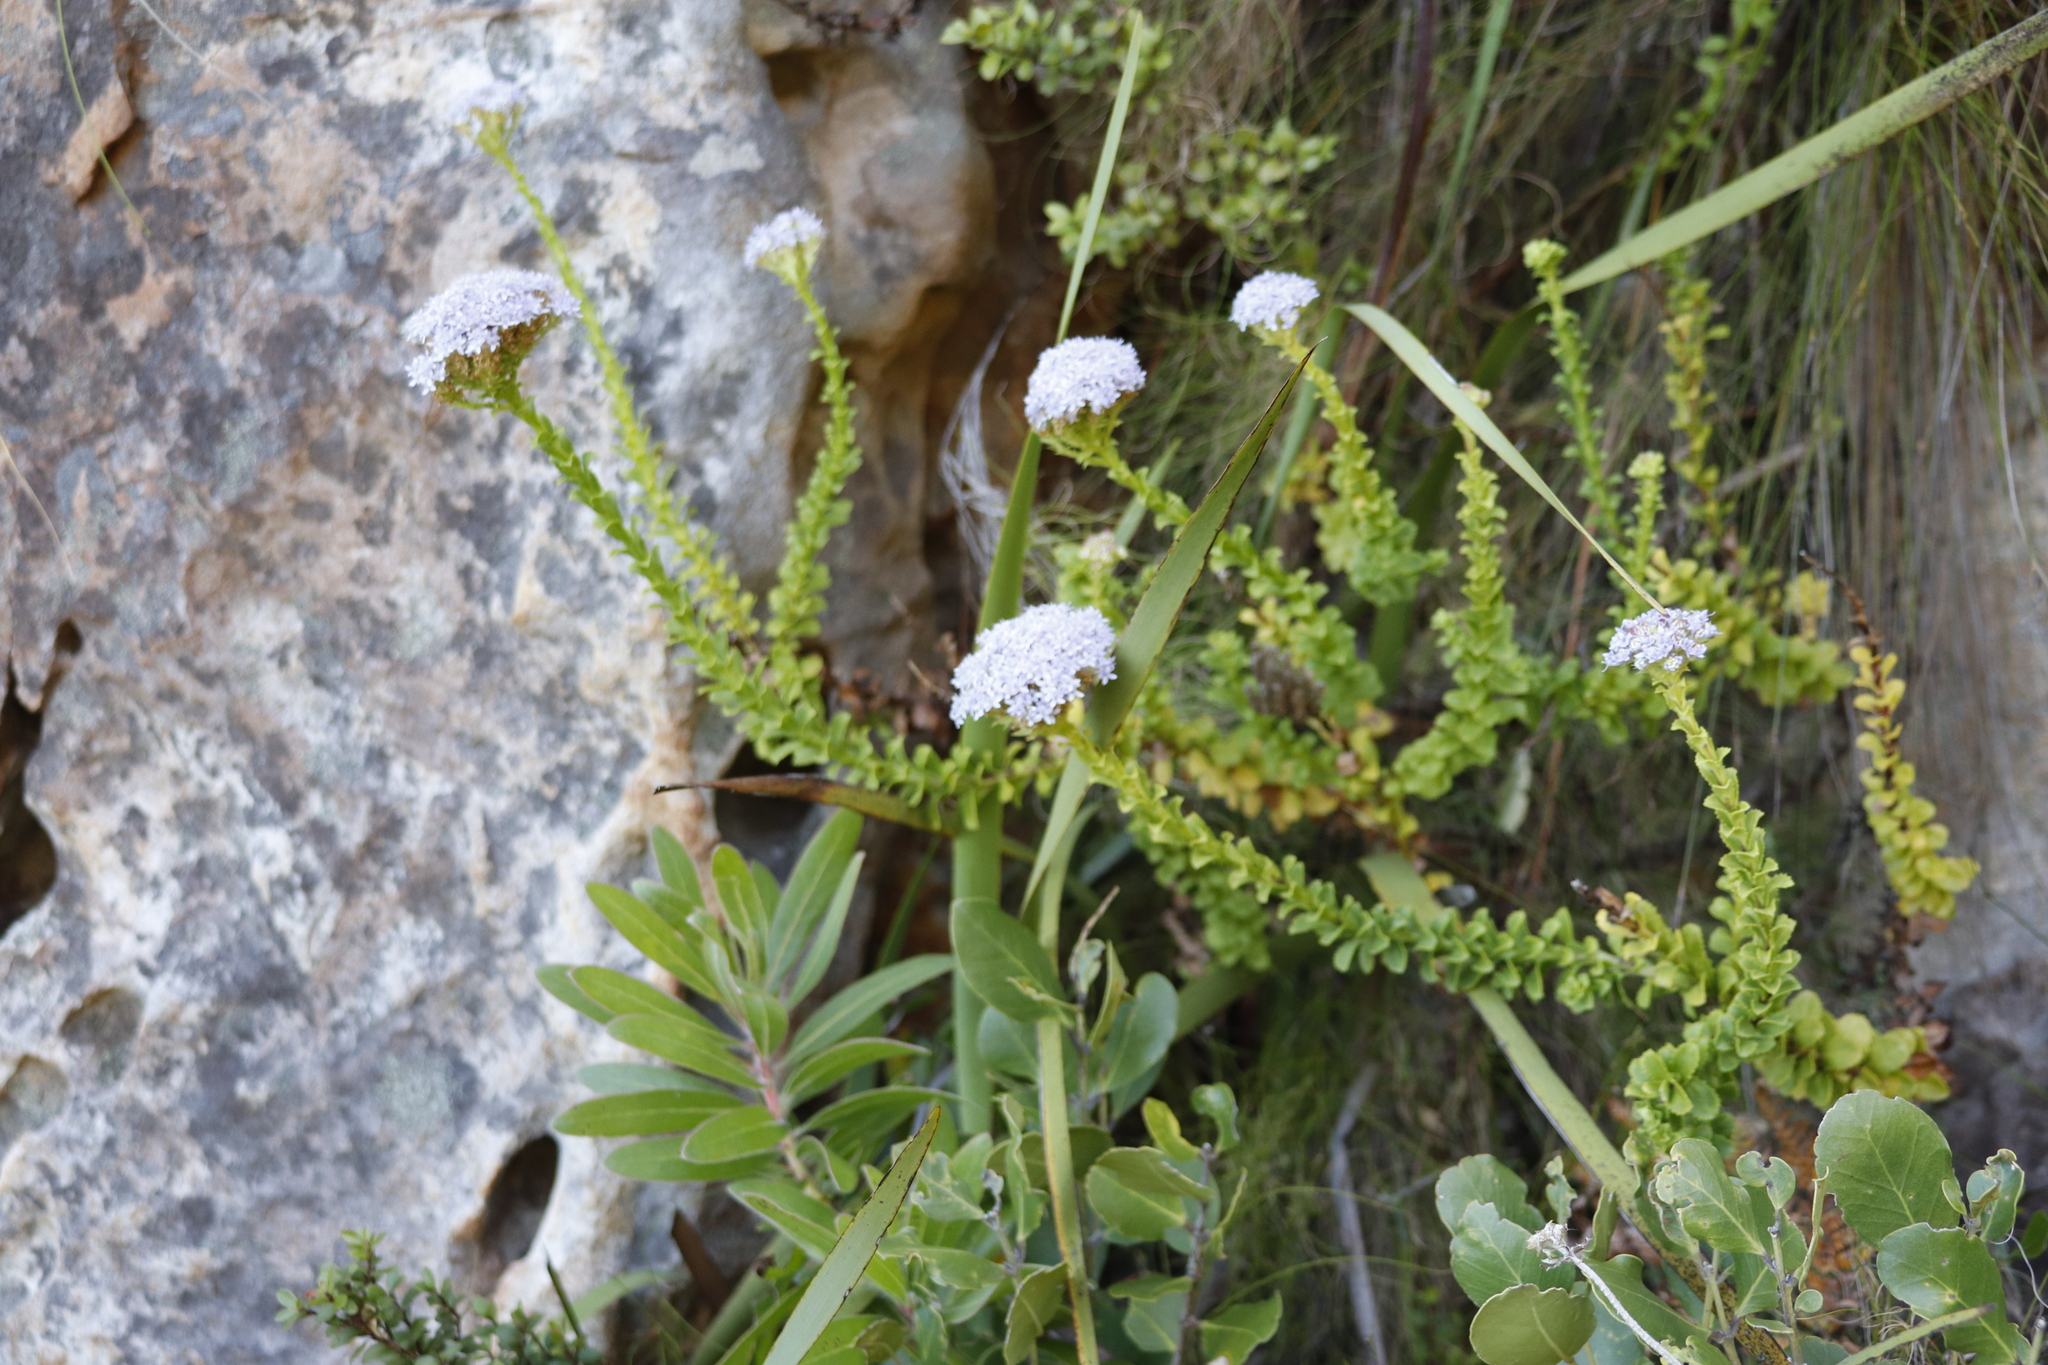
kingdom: Plantae
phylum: Tracheophyta
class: Magnoliopsida
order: Lamiales
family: Scrophulariaceae
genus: Pseudoselago
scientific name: Pseudoselago serrata
